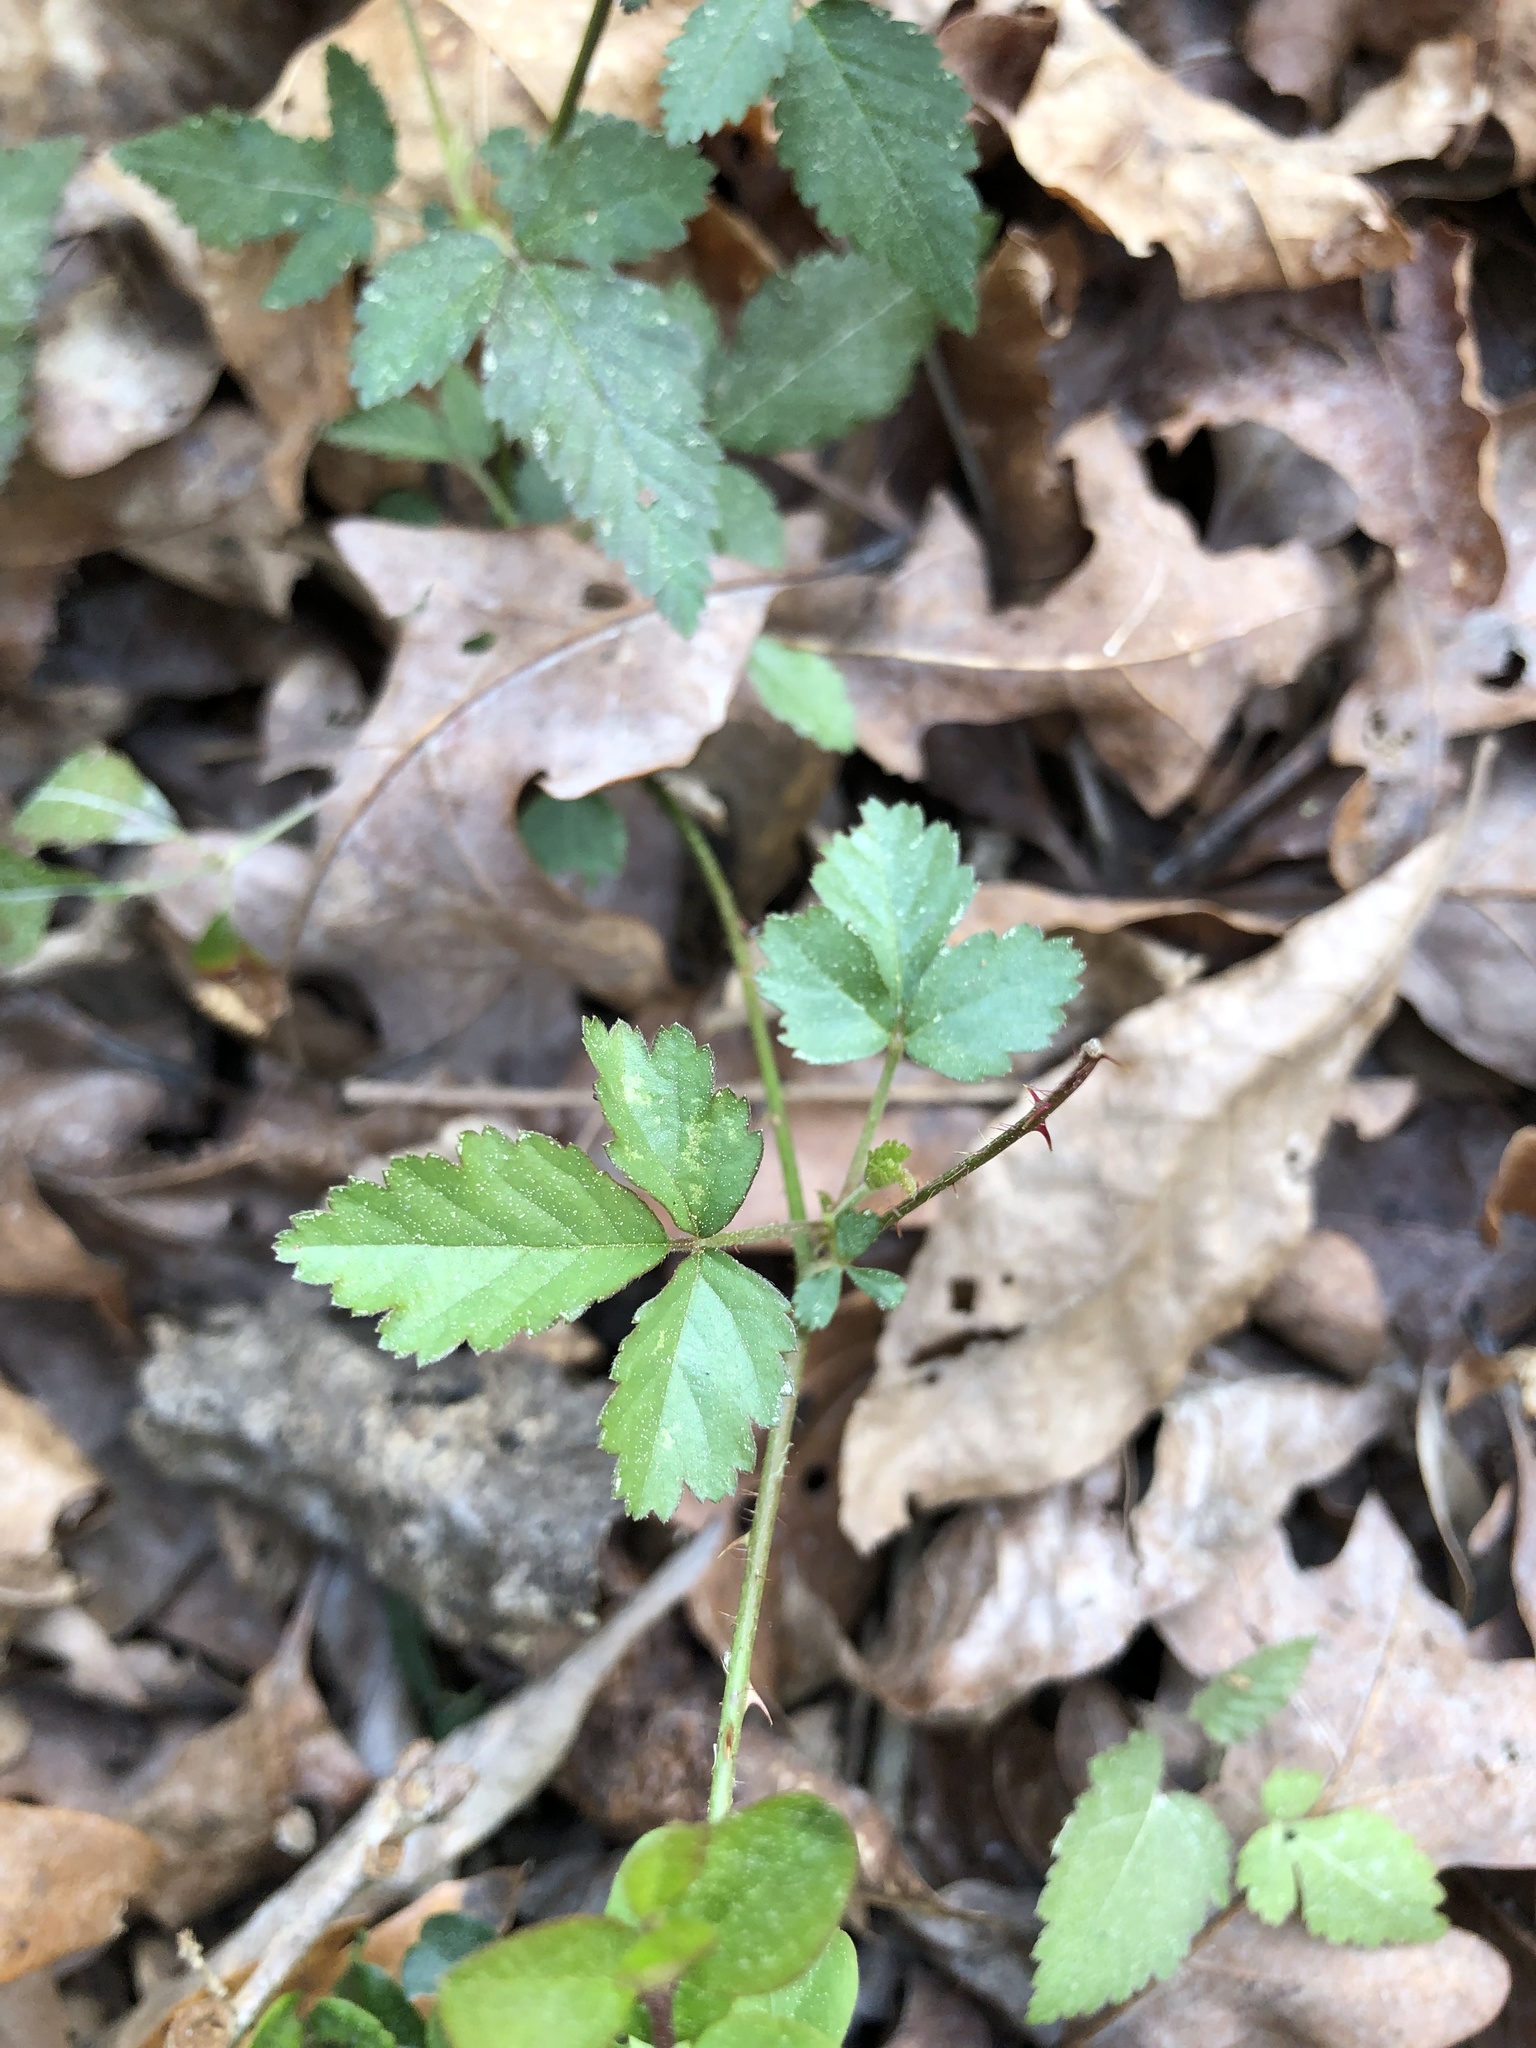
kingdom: Plantae
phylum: Tracheophyta
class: Magnoliopsida
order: Rosales
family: Rosaceae
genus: Rubus
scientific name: Rubus trivialis
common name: Southern dewberry
